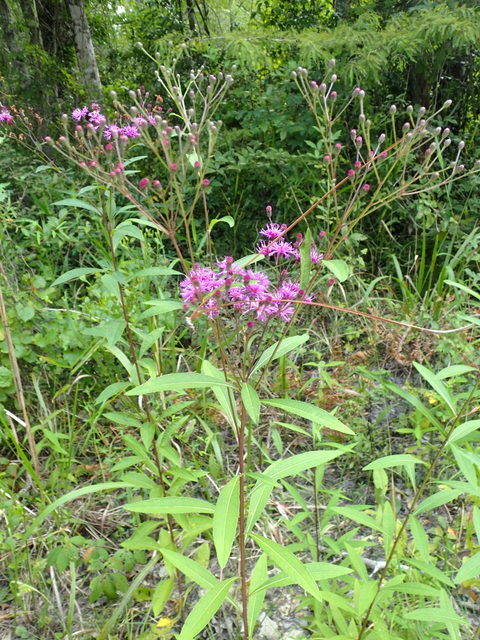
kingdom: Plantae
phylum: Tracheophyta
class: Magnoliopsida
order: Asterales
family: Asteraceae
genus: Vernonia
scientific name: Vernonia gigantea
